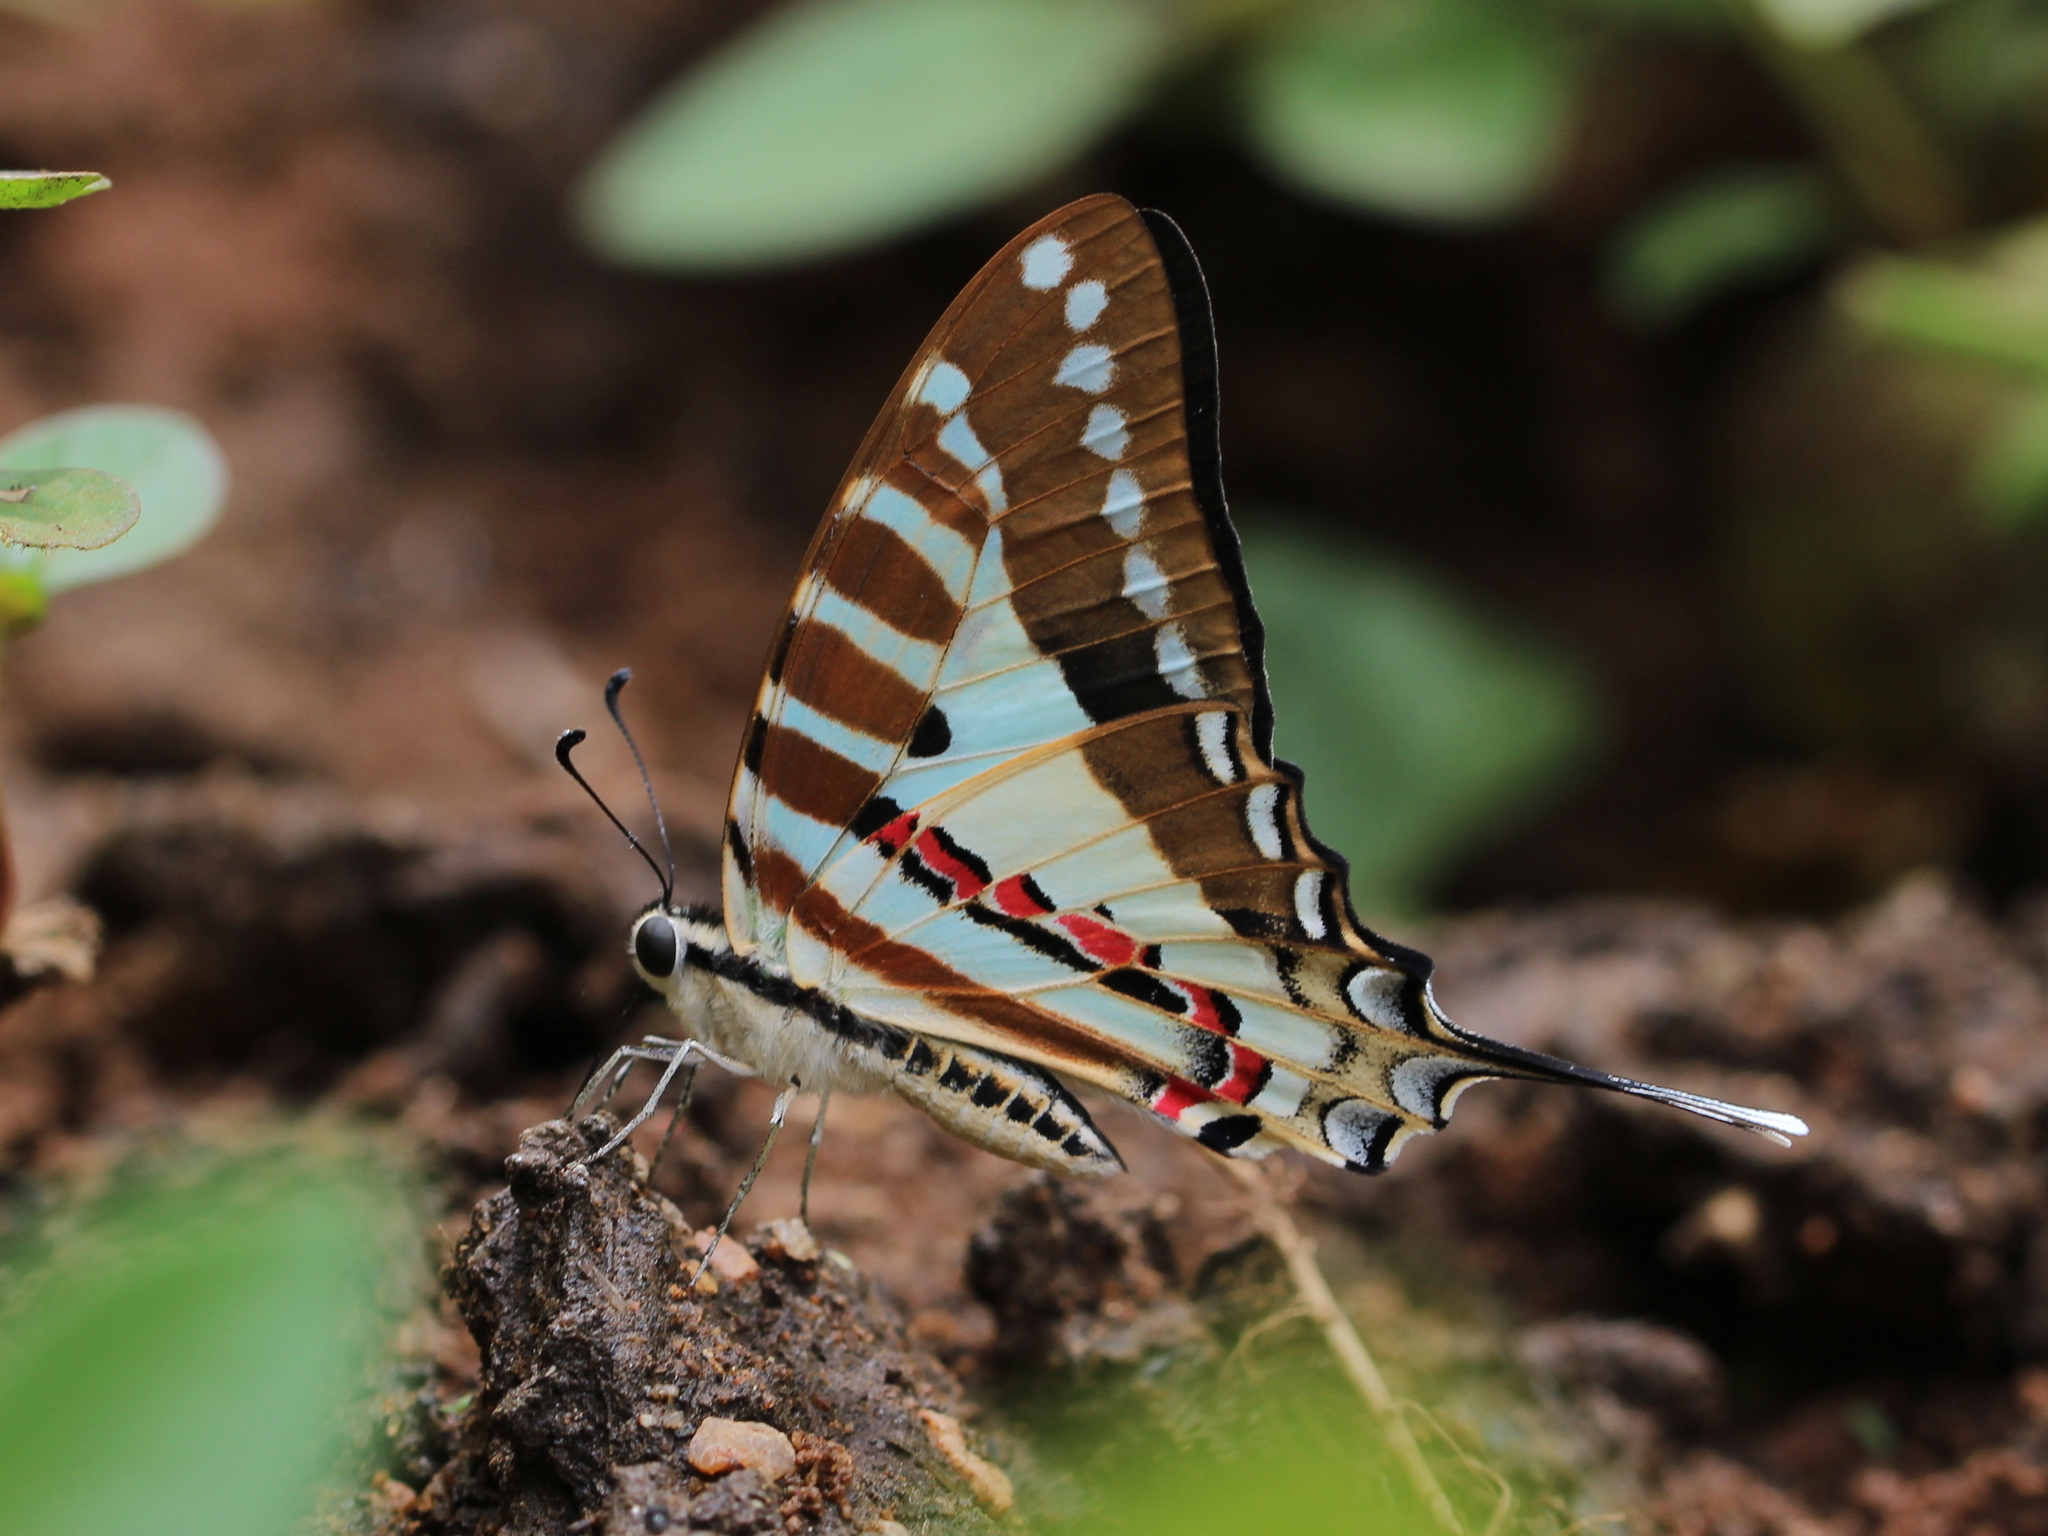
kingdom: Animalia
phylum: Arthropoda
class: Insecta
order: Lepidoptera
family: Papilionidae
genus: Graphium
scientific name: Graphium nomius
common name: Spot swordtail
